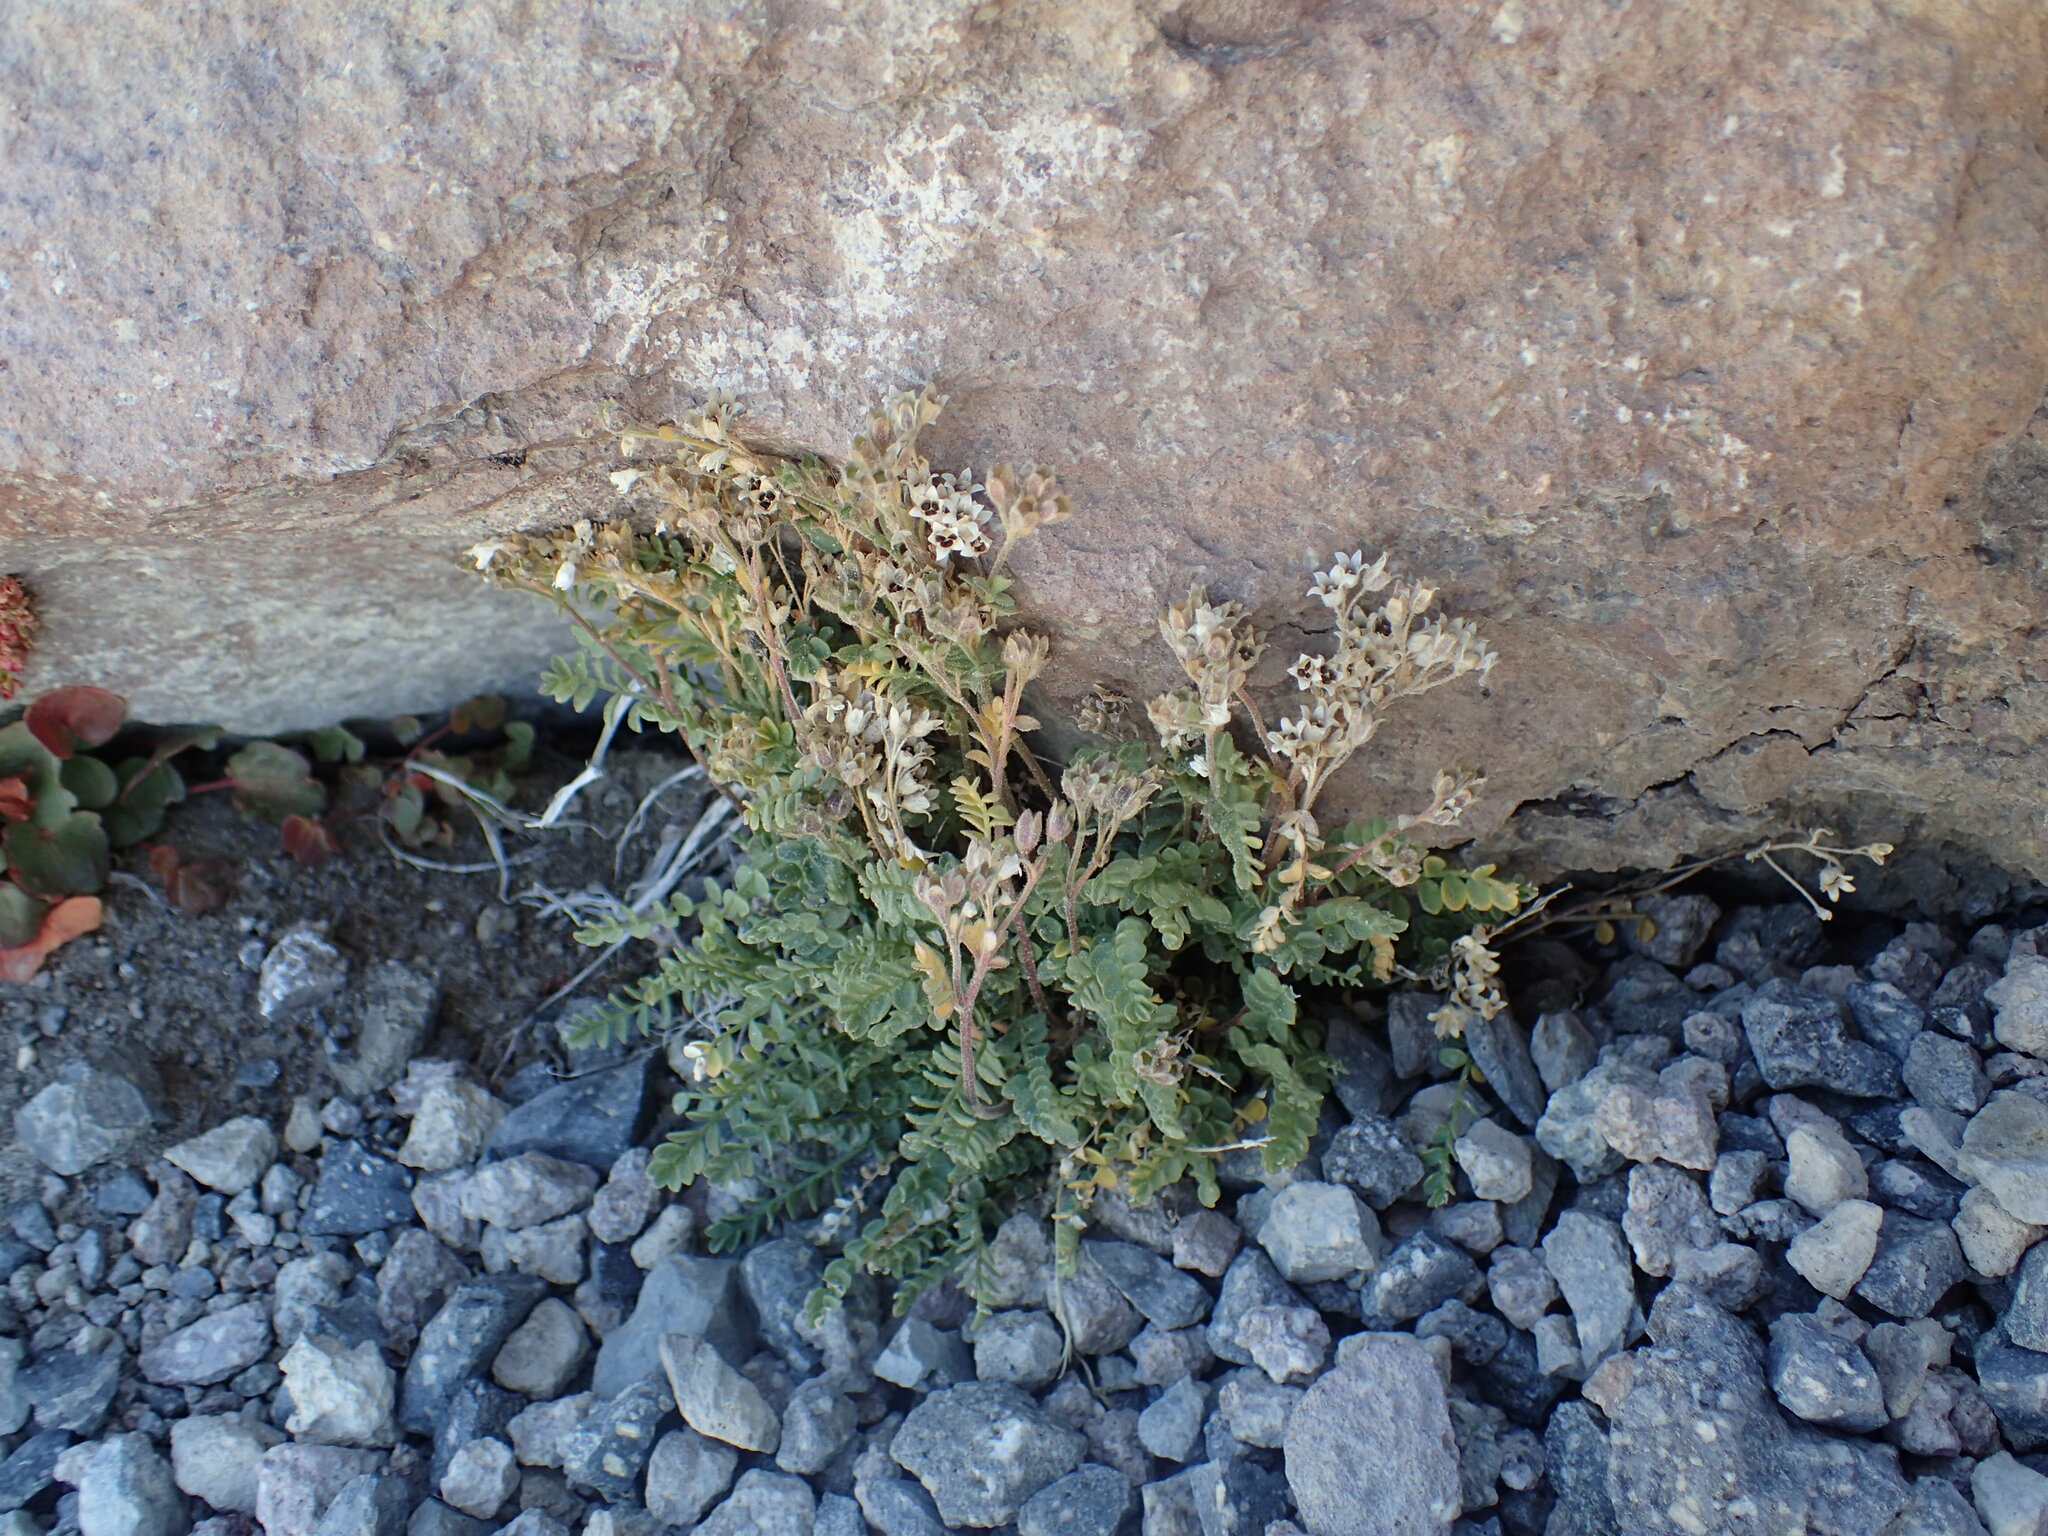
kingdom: Plantae
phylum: Tracheophyta
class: Magnoliopsida
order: Ericales
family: Polemoniaceae
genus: Polemonium
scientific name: Polemonium pulcherrimum
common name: Short jacob's-ladder
